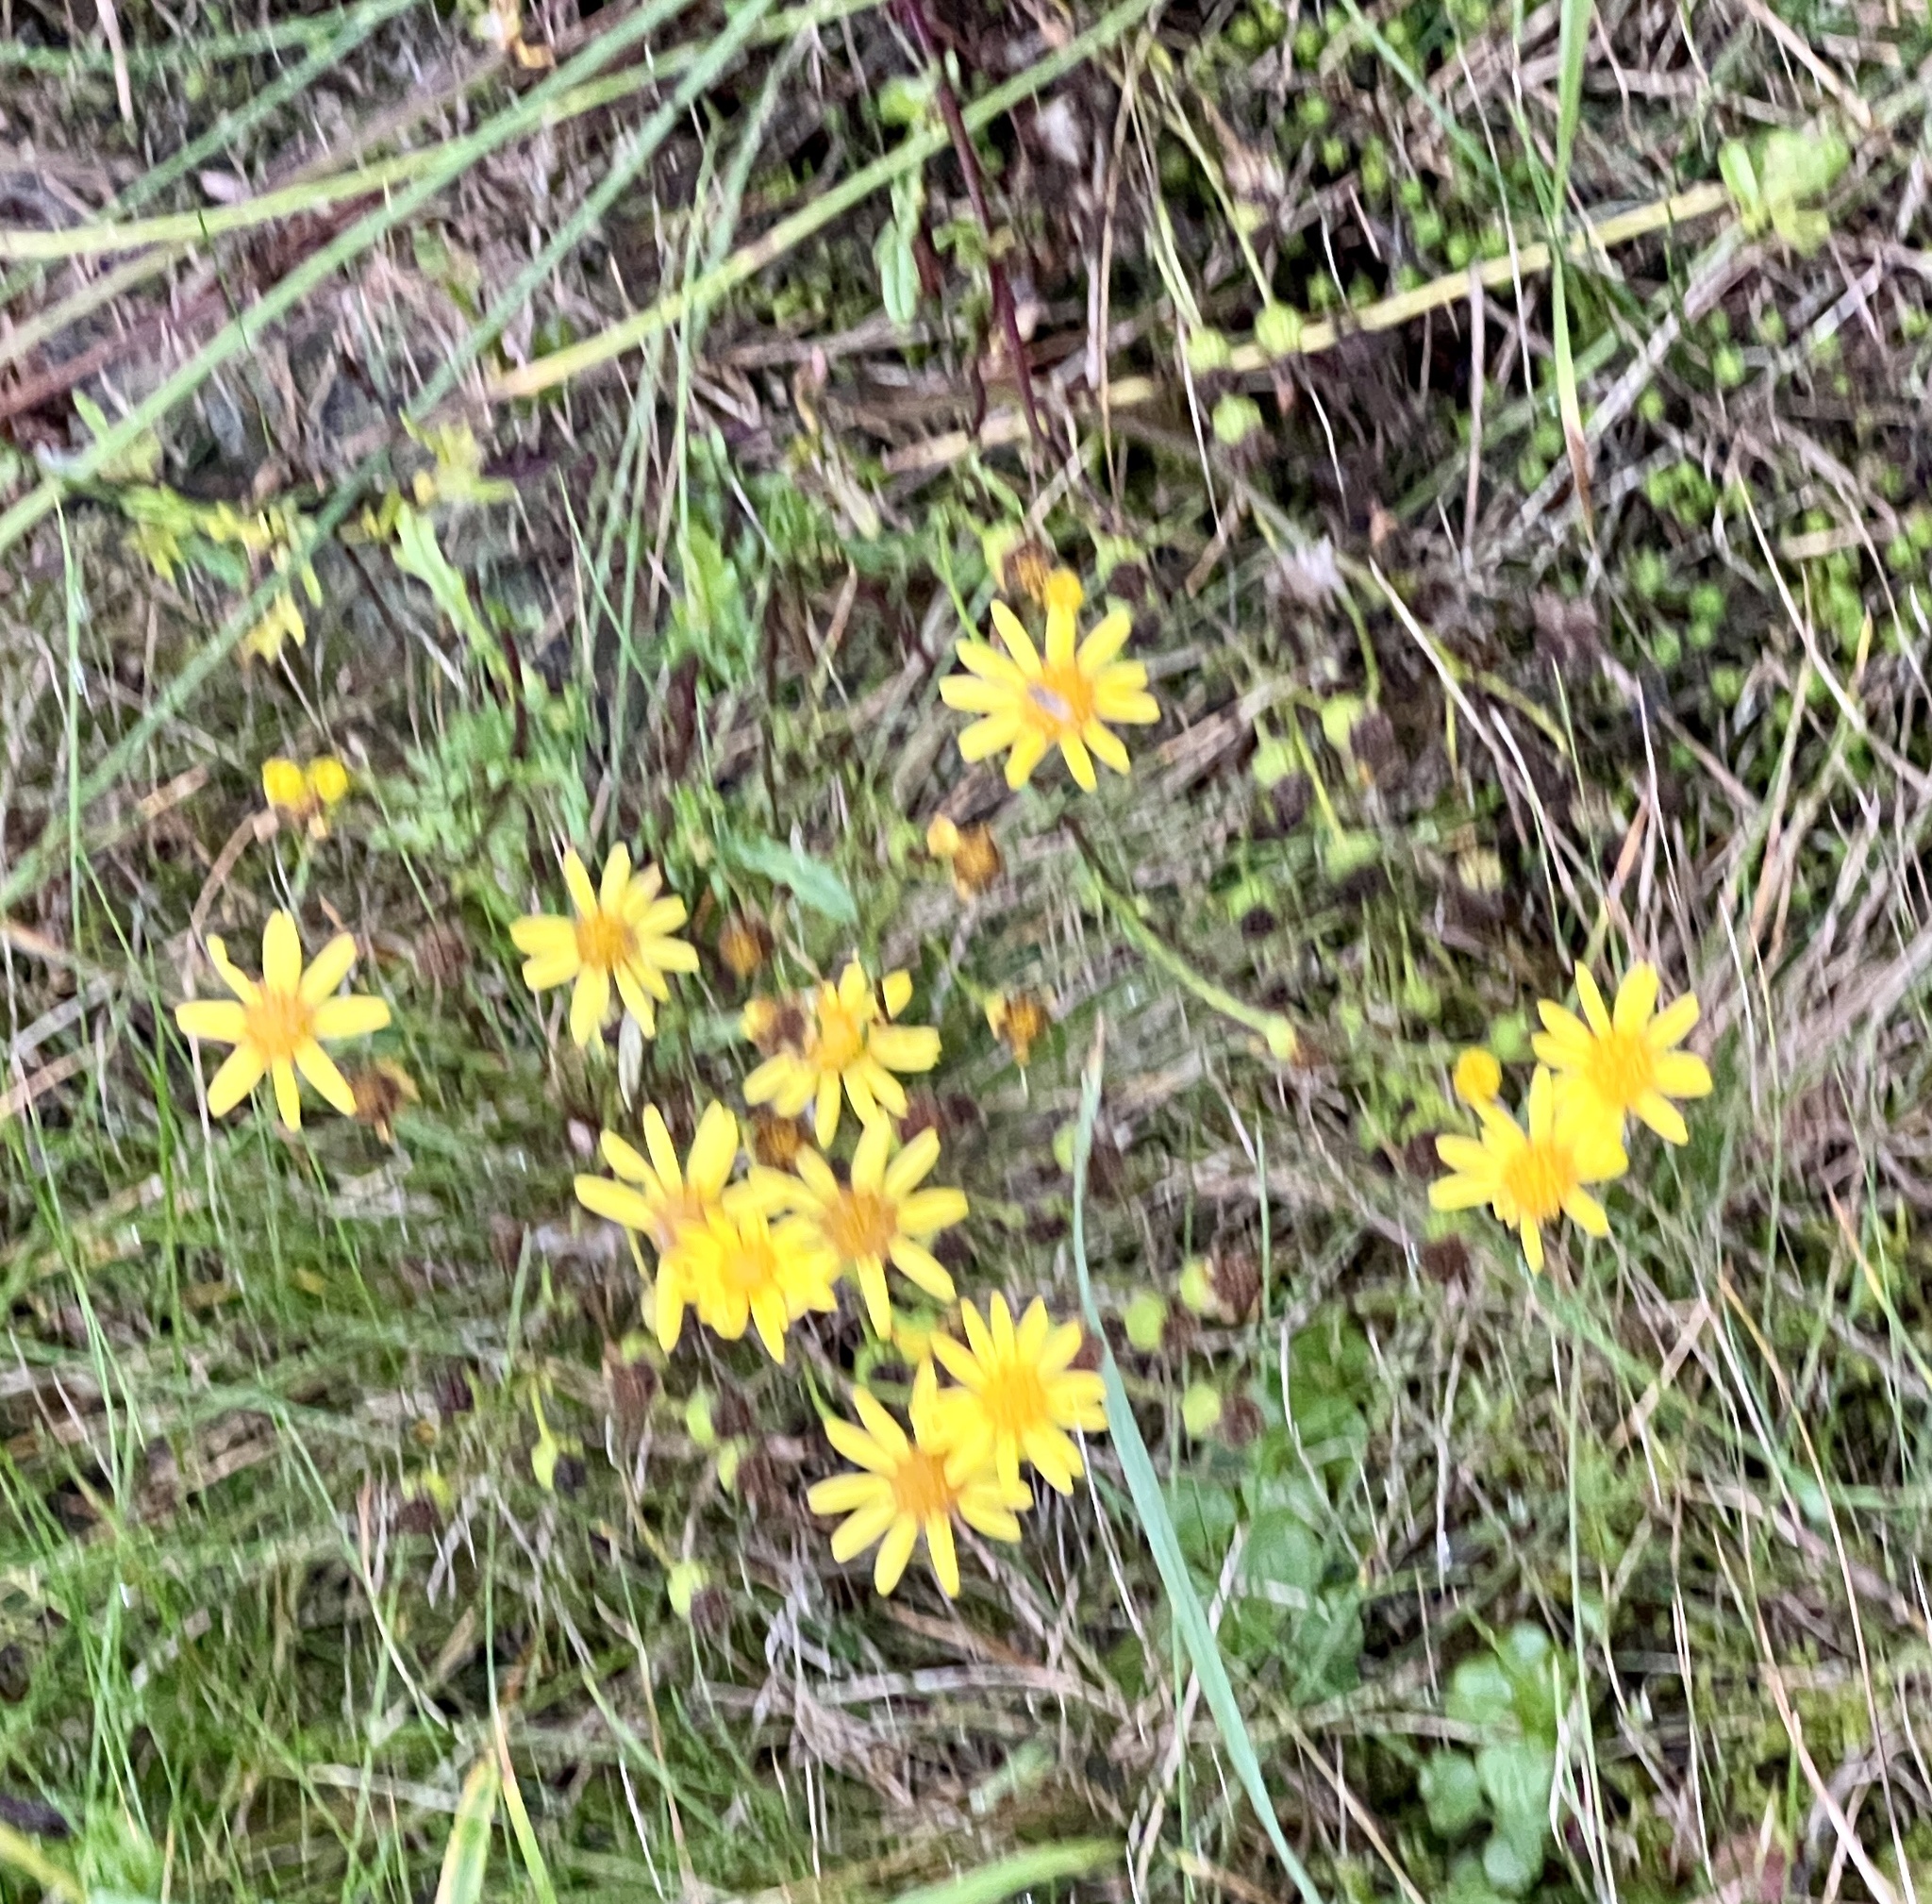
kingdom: Plantae
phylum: Tracheophyta
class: Magnoliopsida
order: Asterales
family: Asteraceae
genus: Jacobaea
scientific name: Jacobaea vulgaris
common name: Stinking willie
